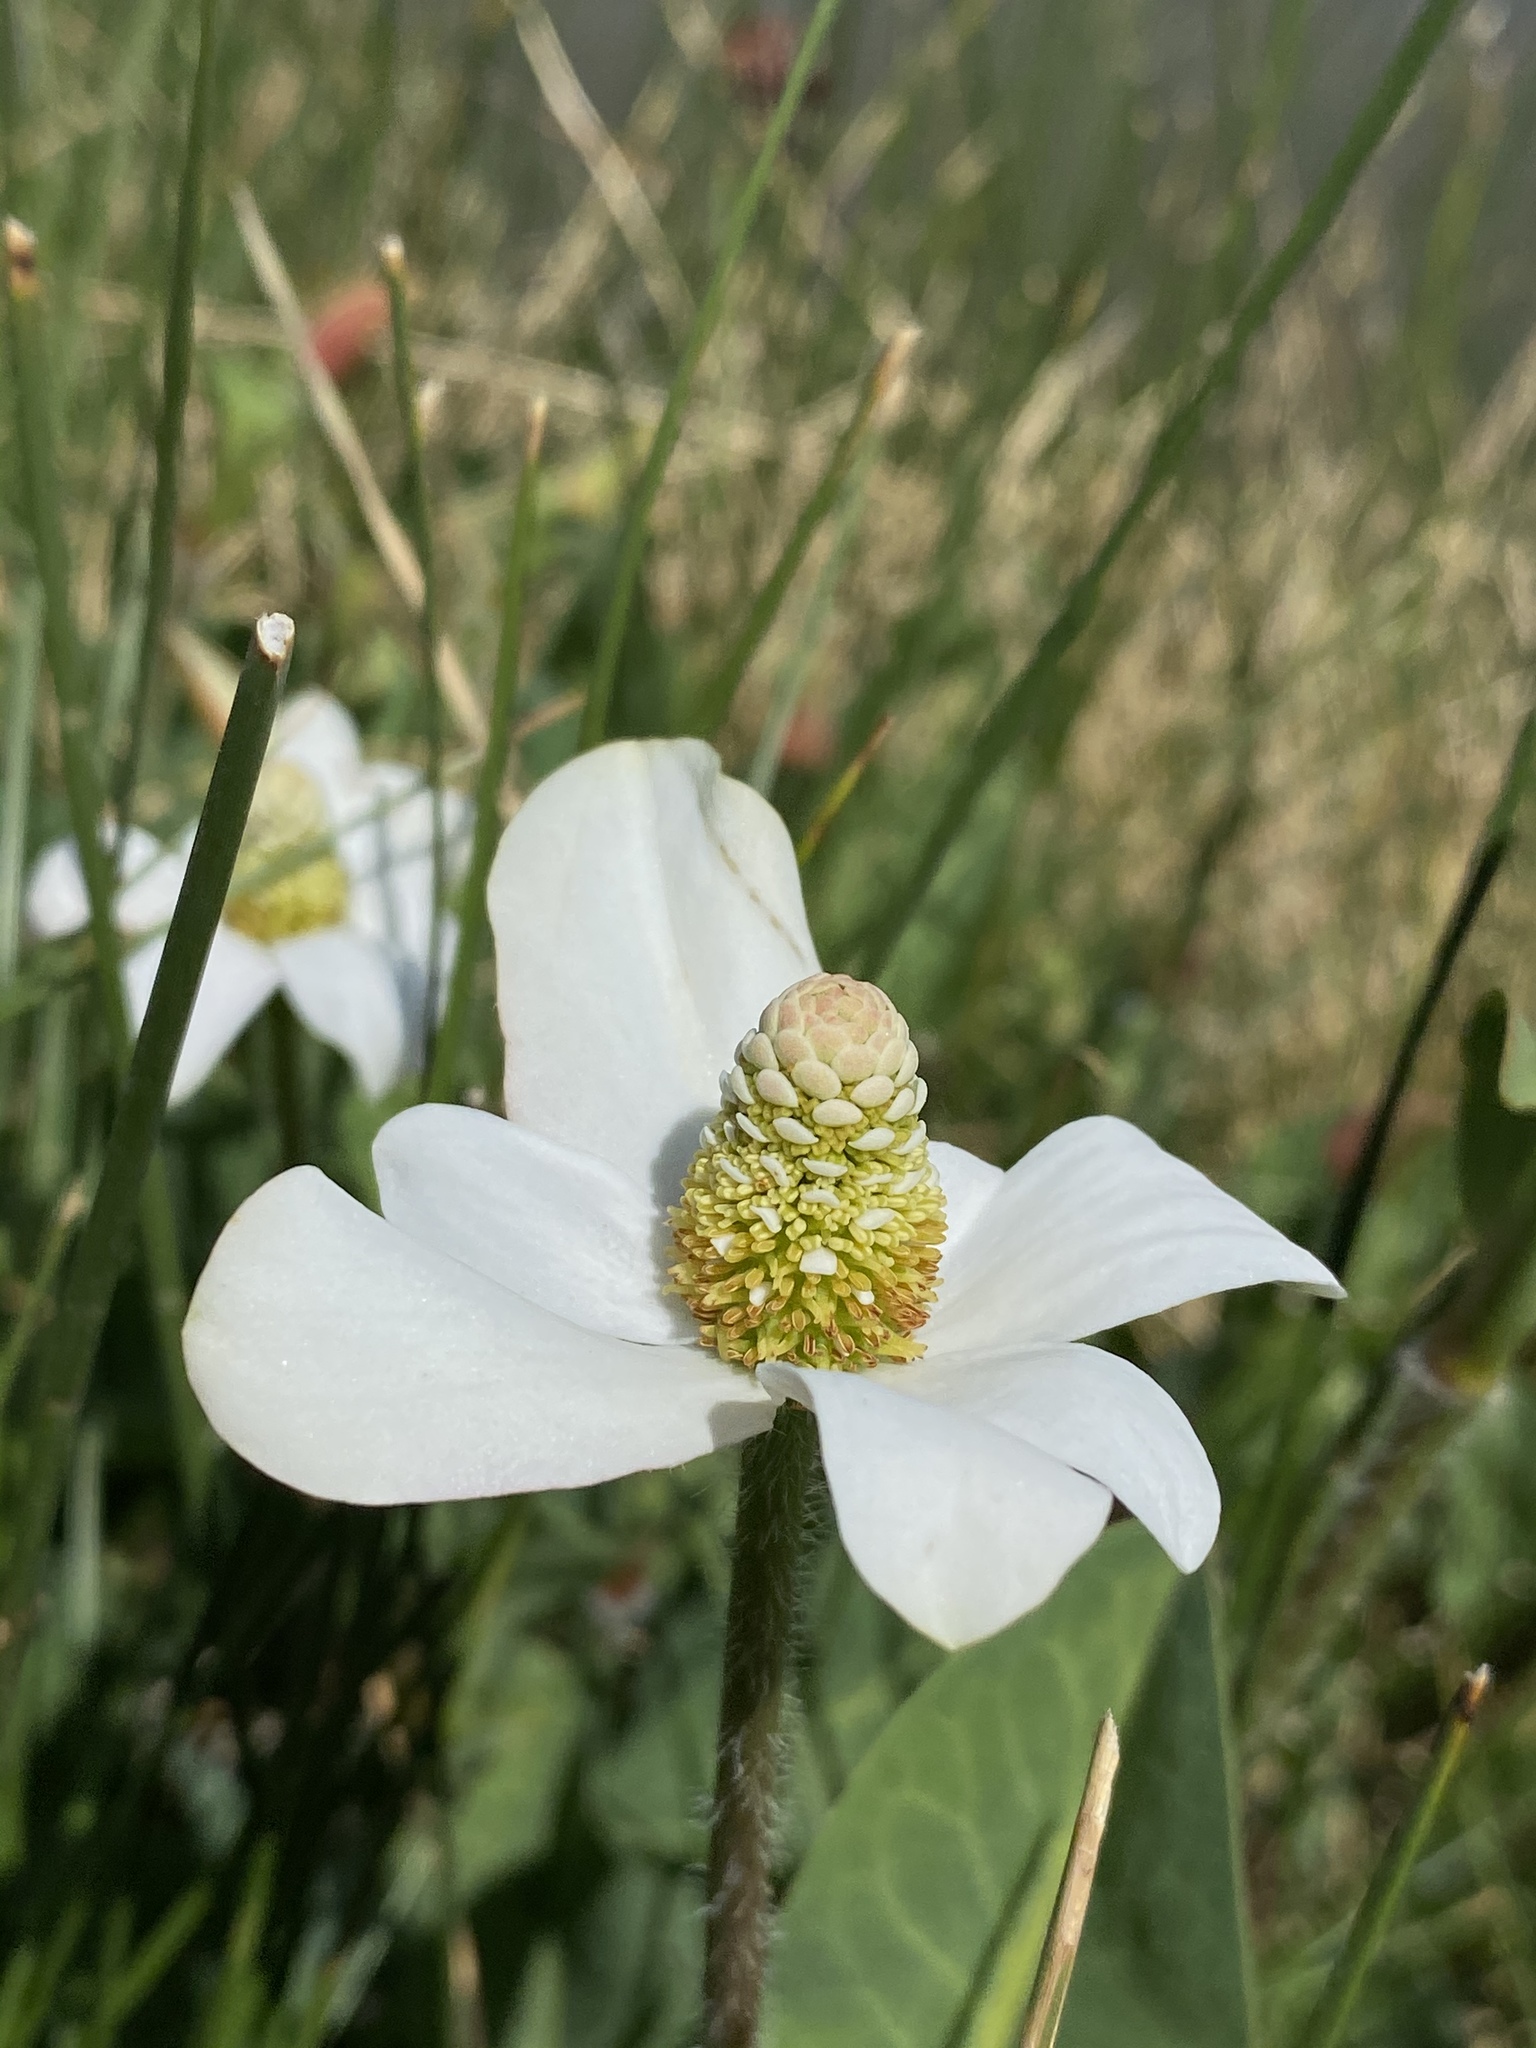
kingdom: Plantae
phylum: Tracheophyta
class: Magnoliopsida
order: Piperales
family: Saururaceae
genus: Anemopsis
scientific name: Anemopsis californica
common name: Apache-beads
